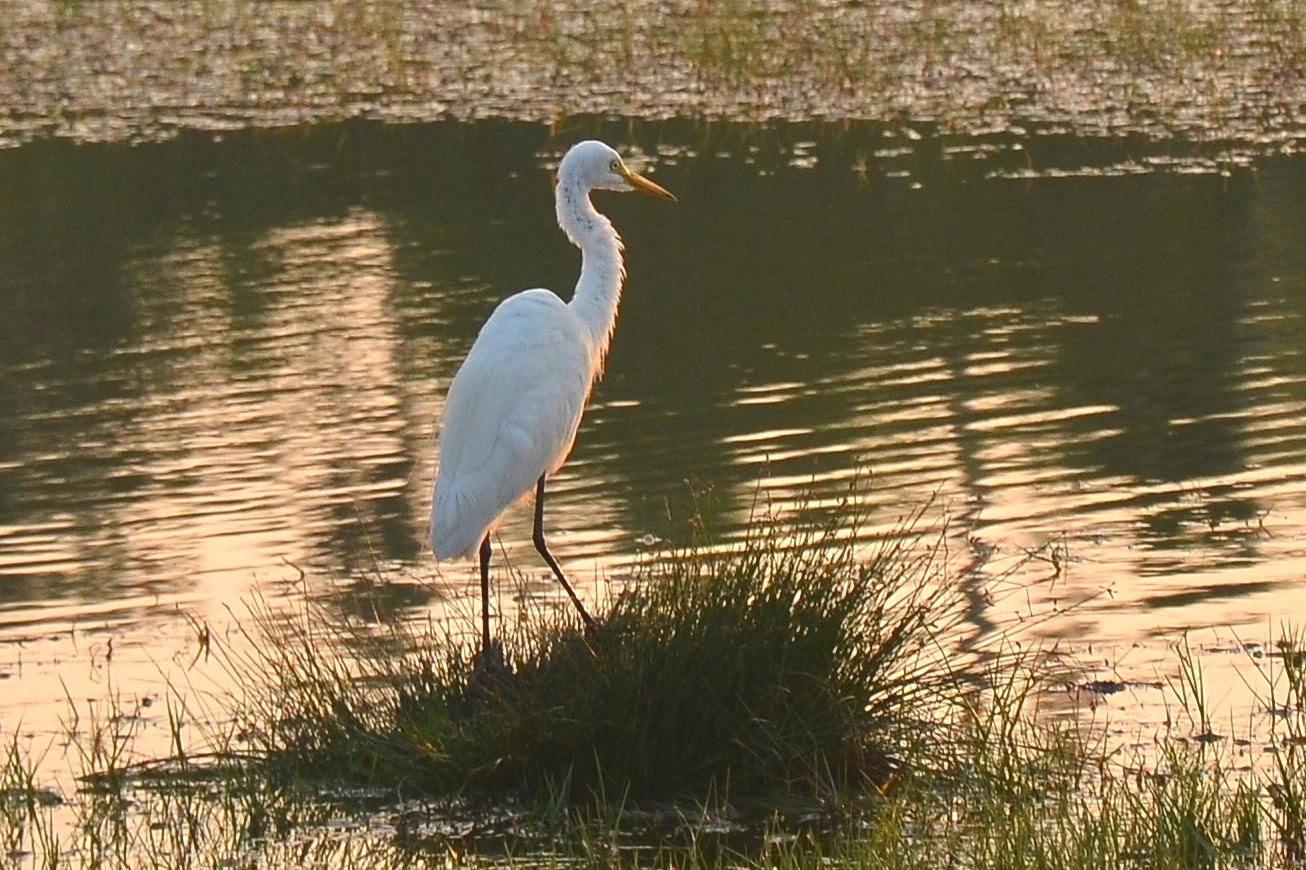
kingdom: Animalia
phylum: Chordata
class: Aves
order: Pelecaniformes
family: Ardeidae
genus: Egretta
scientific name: Egretta intermedia
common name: Intermediate egret
